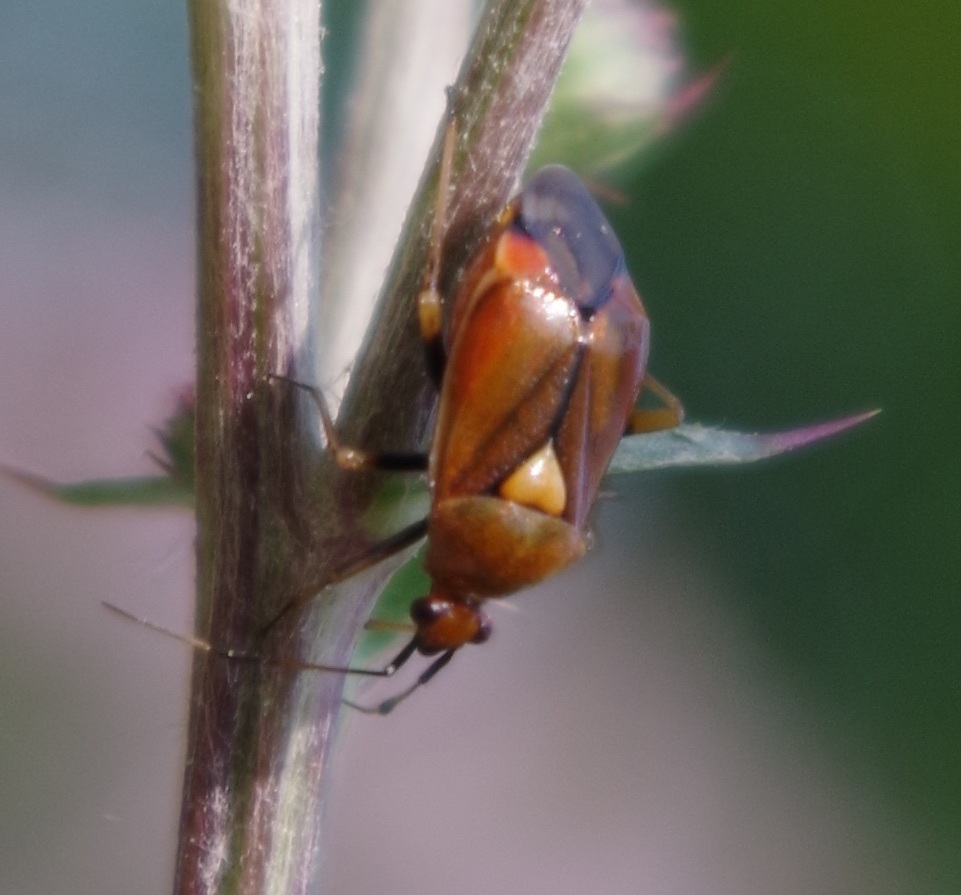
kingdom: Animalia
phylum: Arthropoda
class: Insecta
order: Hemiptera
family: Miridae
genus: Deraeocoris
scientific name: Deraeocoris ruber
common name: Plant bug
